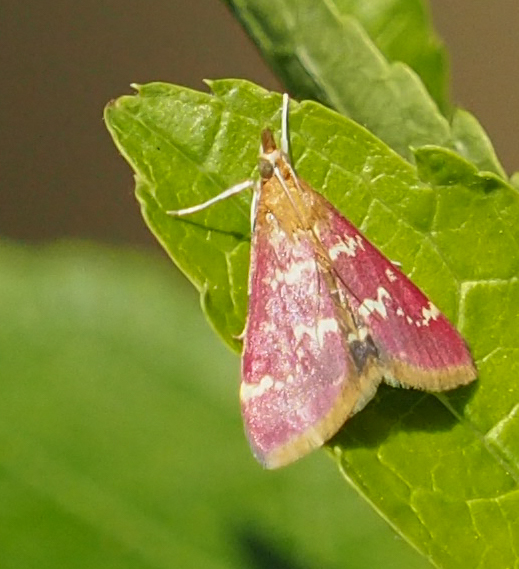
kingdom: Animalia
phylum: Arthropoda
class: Insecta
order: Lepidoptera
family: Crambidae
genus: Pyrausta
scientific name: Pyrausta signatalis
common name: Raspberry pyrausta moth
